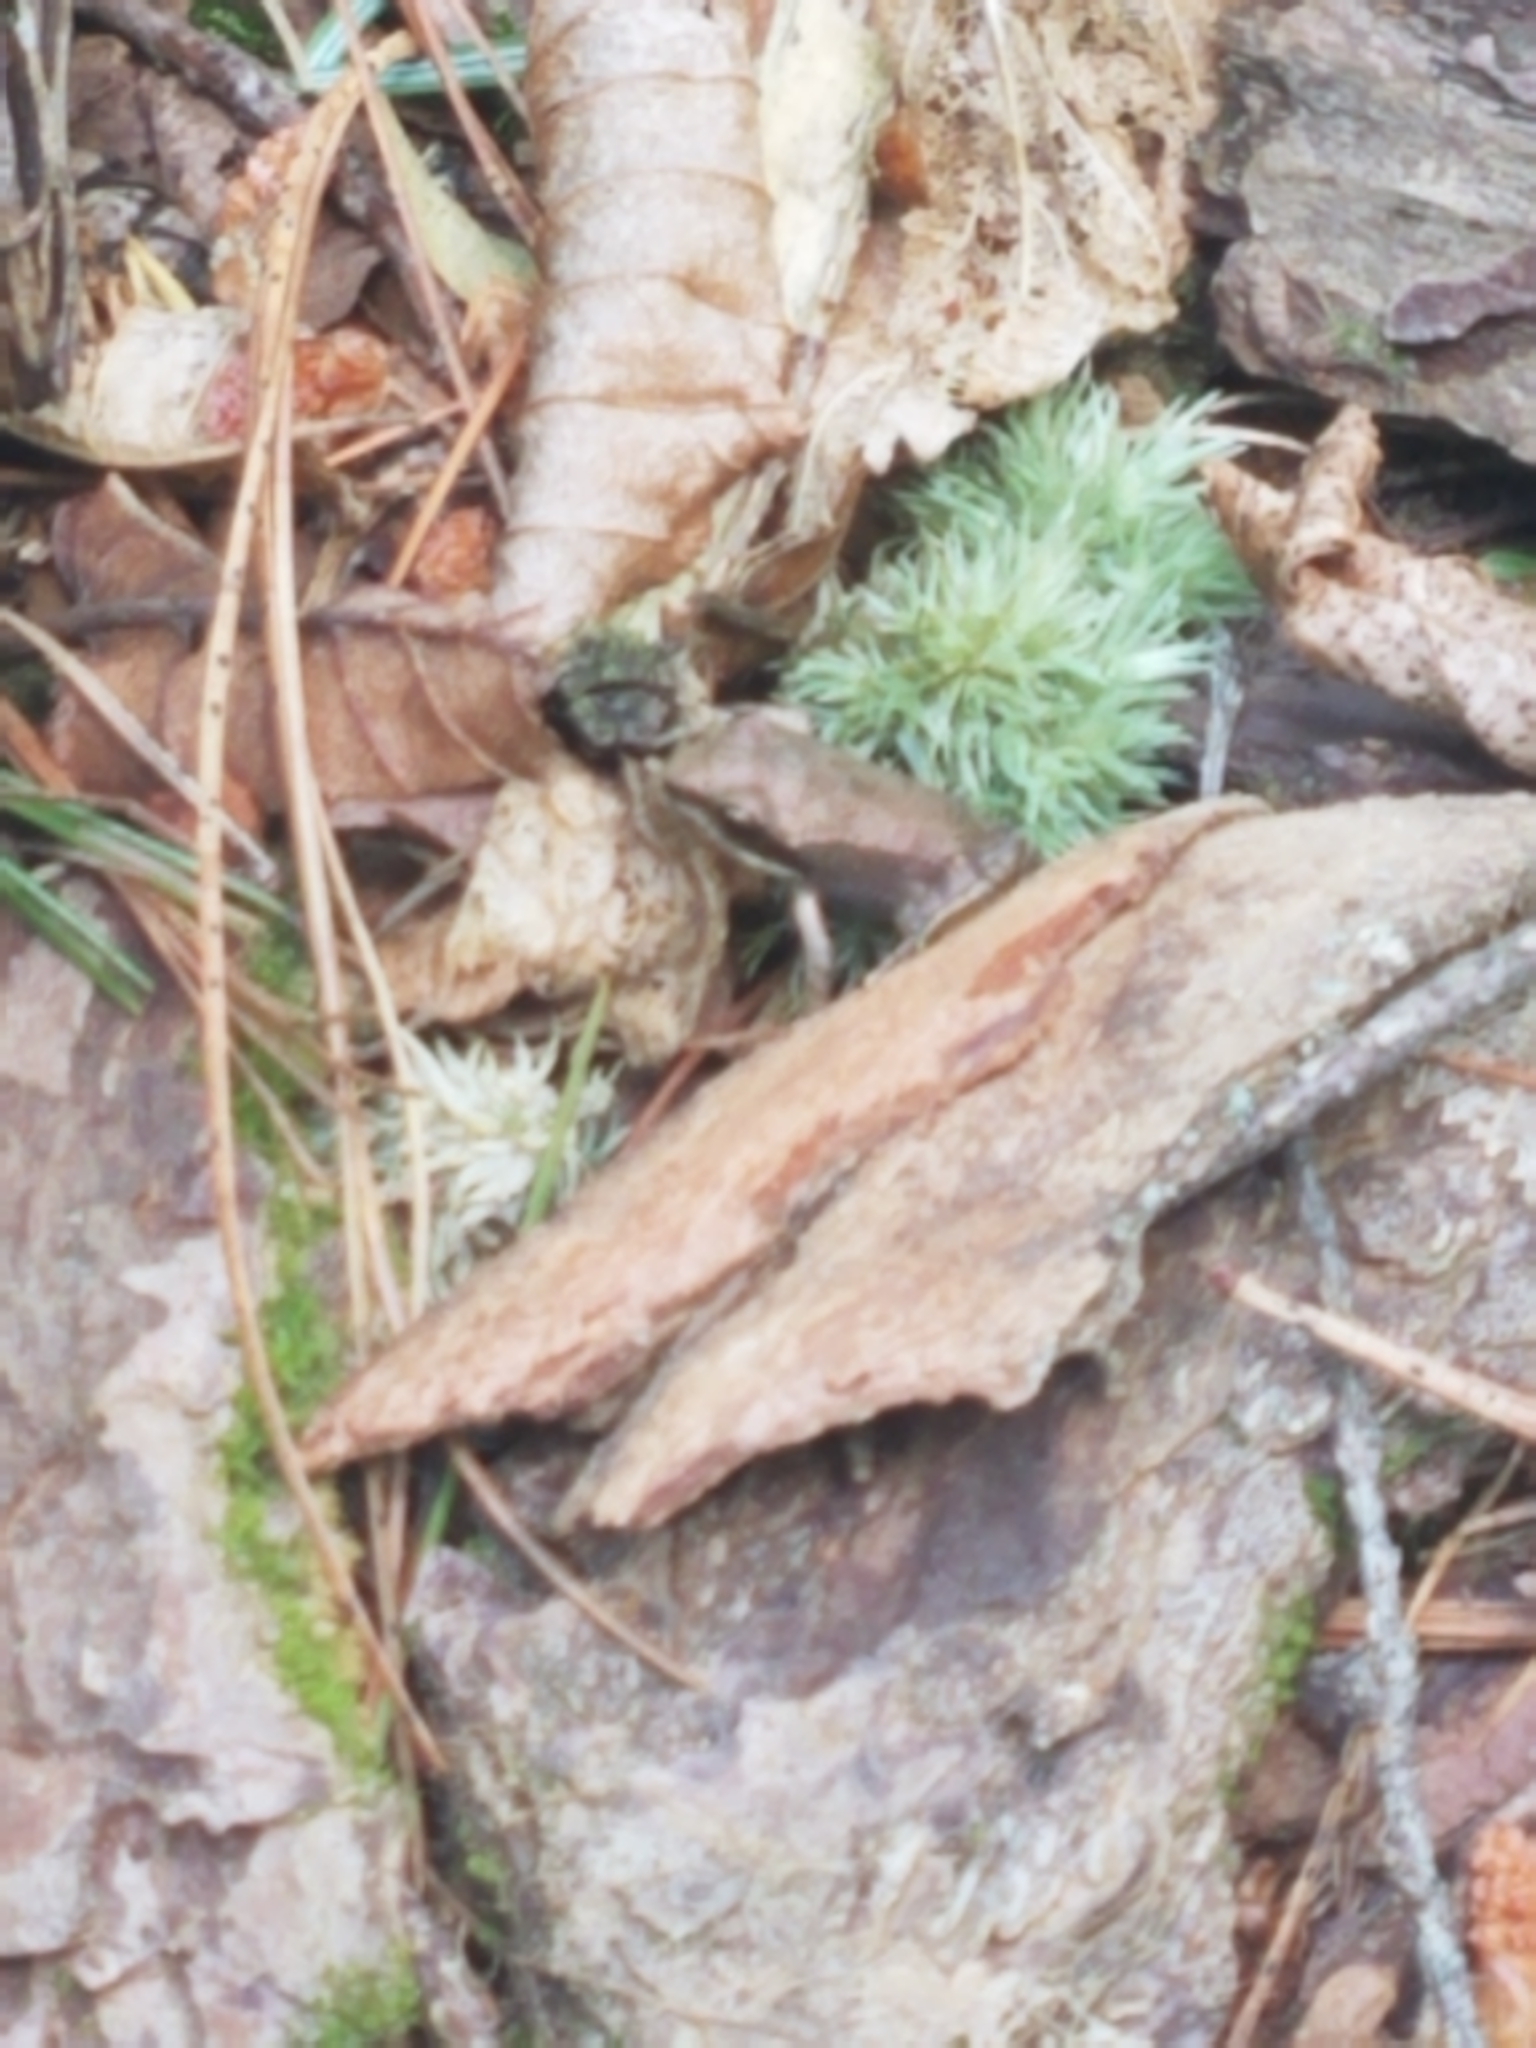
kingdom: Animalia
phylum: Chordata
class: Amphibia
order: Anura
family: Ranidae
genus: Lithobates
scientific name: Lithobates sylvaticus
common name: Wood frog
